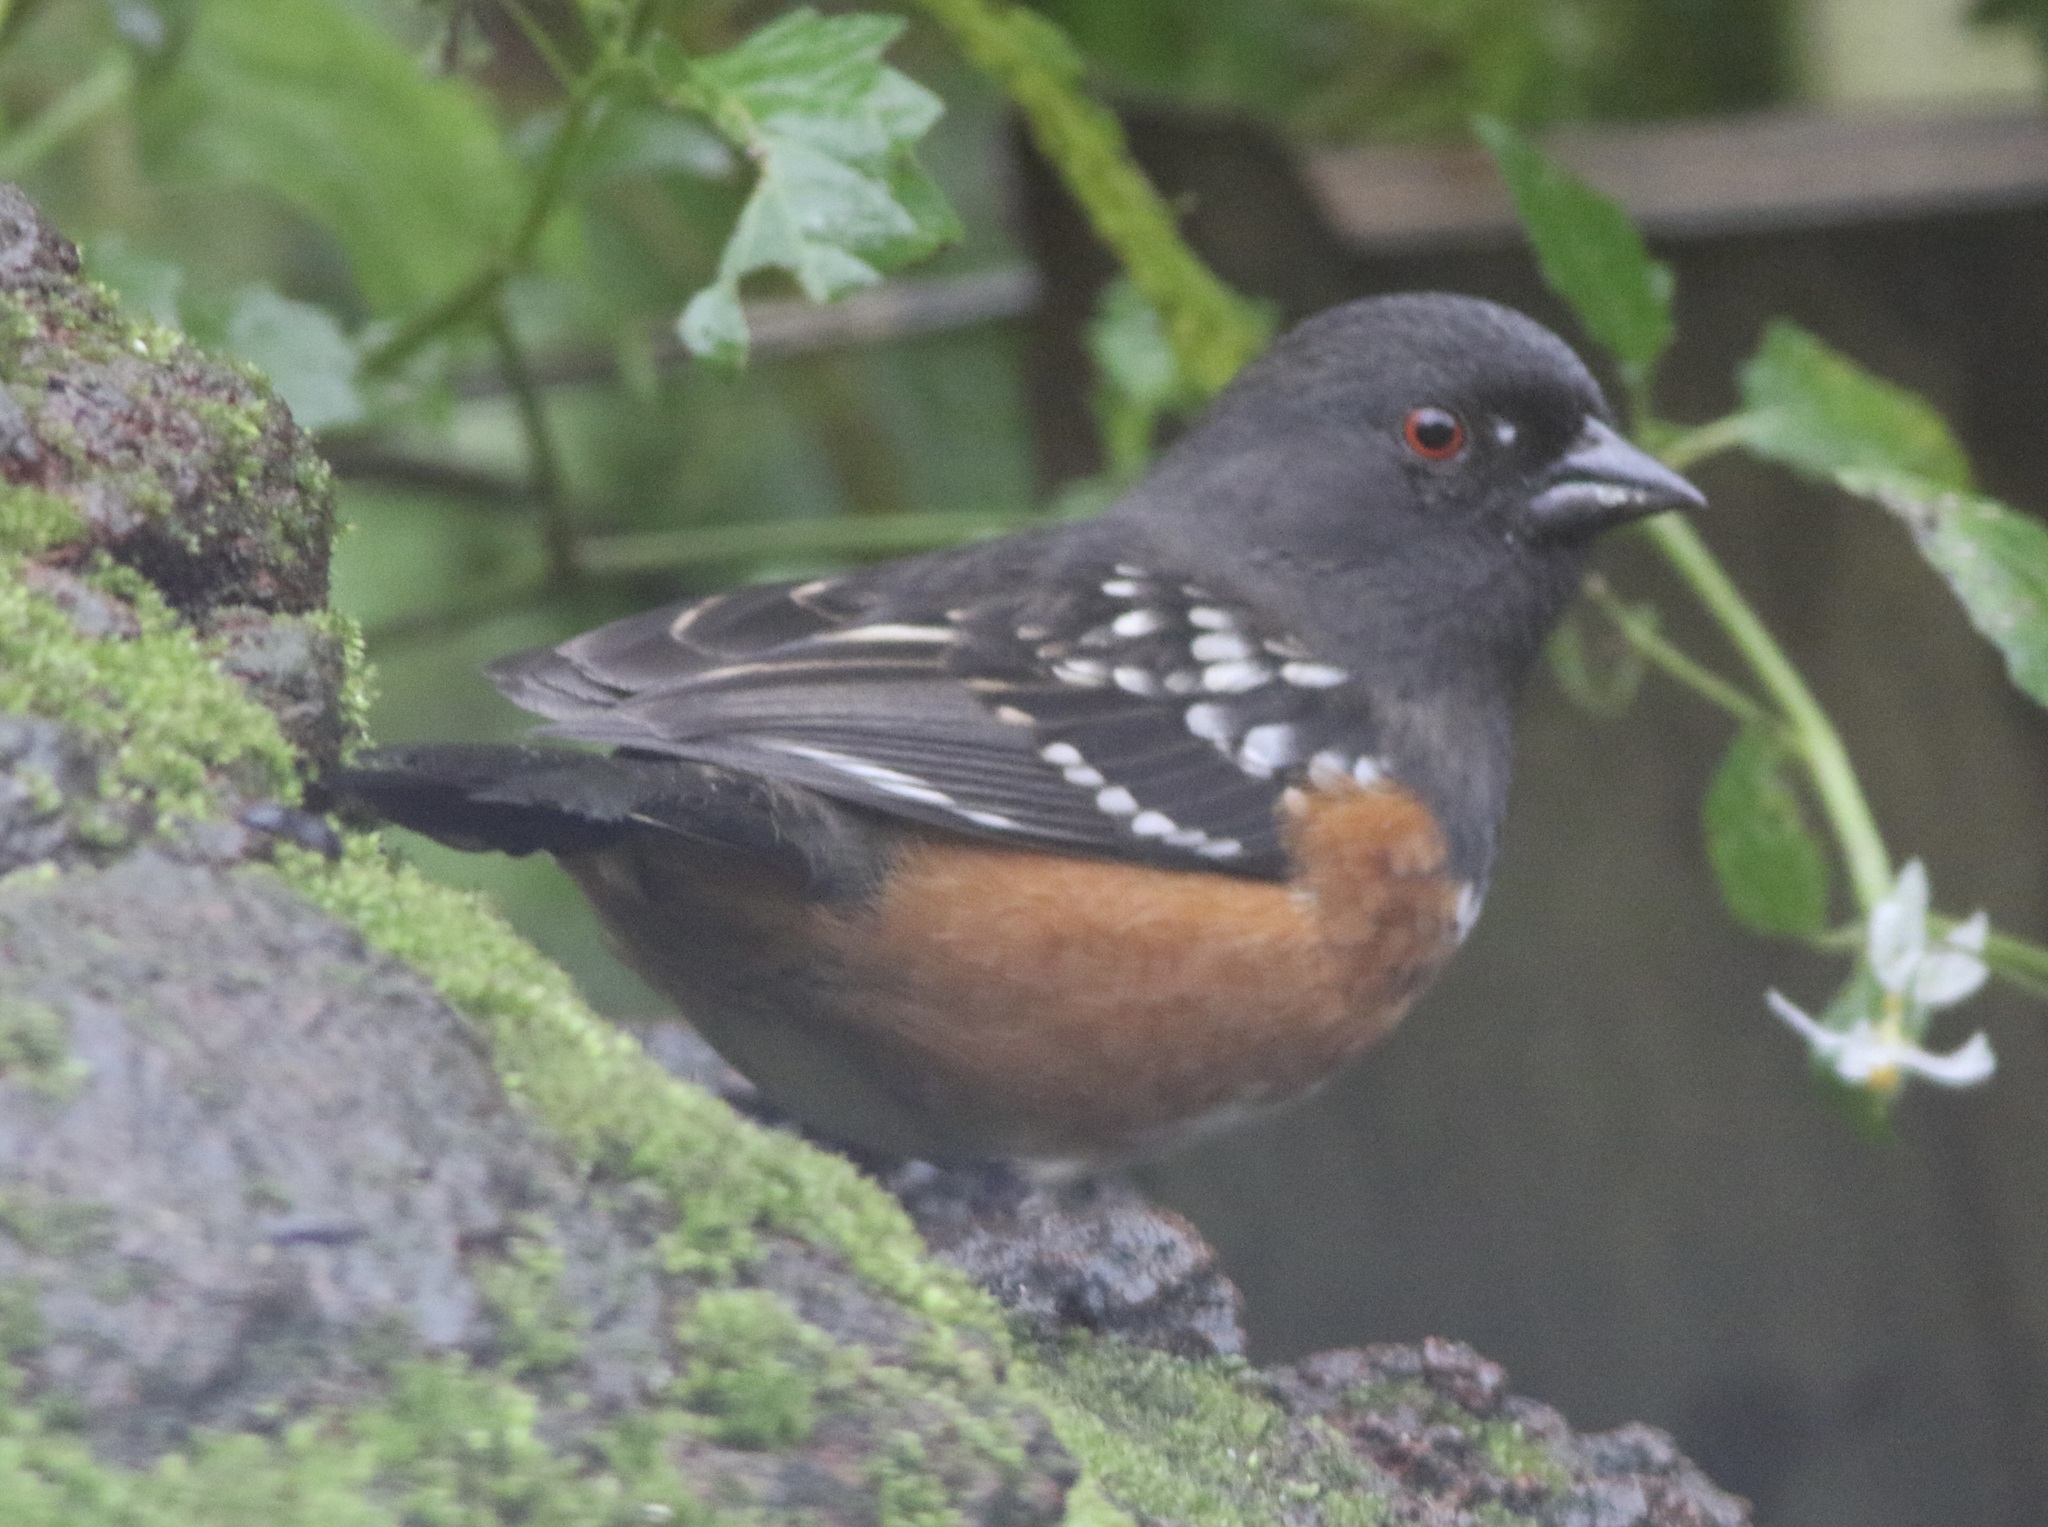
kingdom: Animalia
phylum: Chordata
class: Aves
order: Passeriformes
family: Passerellidae
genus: Pipilo
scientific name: Pipilo maculatus
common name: Spotted towhee
